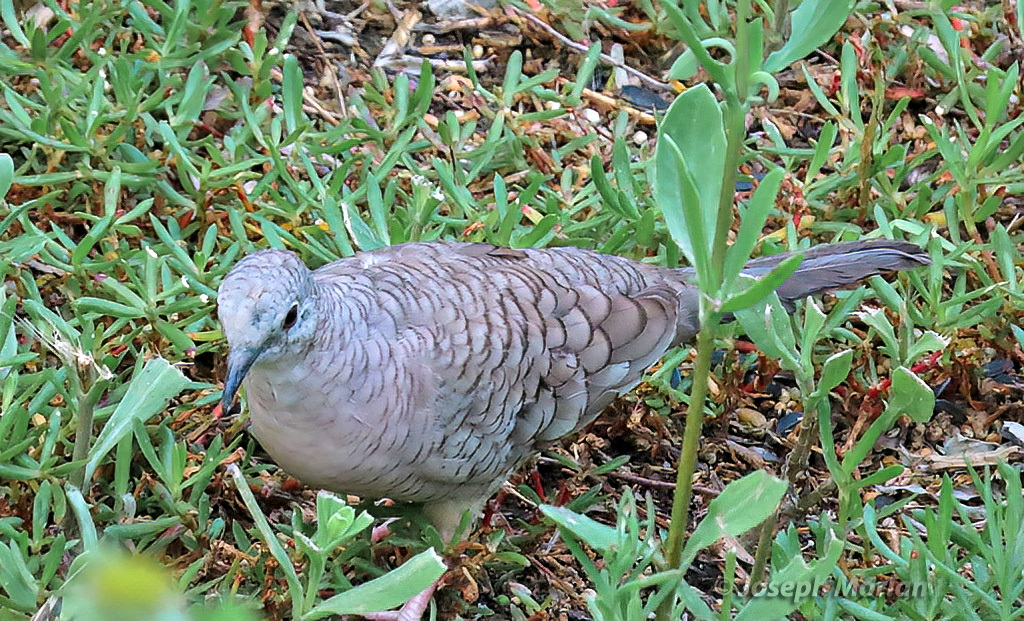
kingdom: Animalia
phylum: Chordata
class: Aves
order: Columbiformes
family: Columbidae
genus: Columbina
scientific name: Columbina inca
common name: Inca dove
